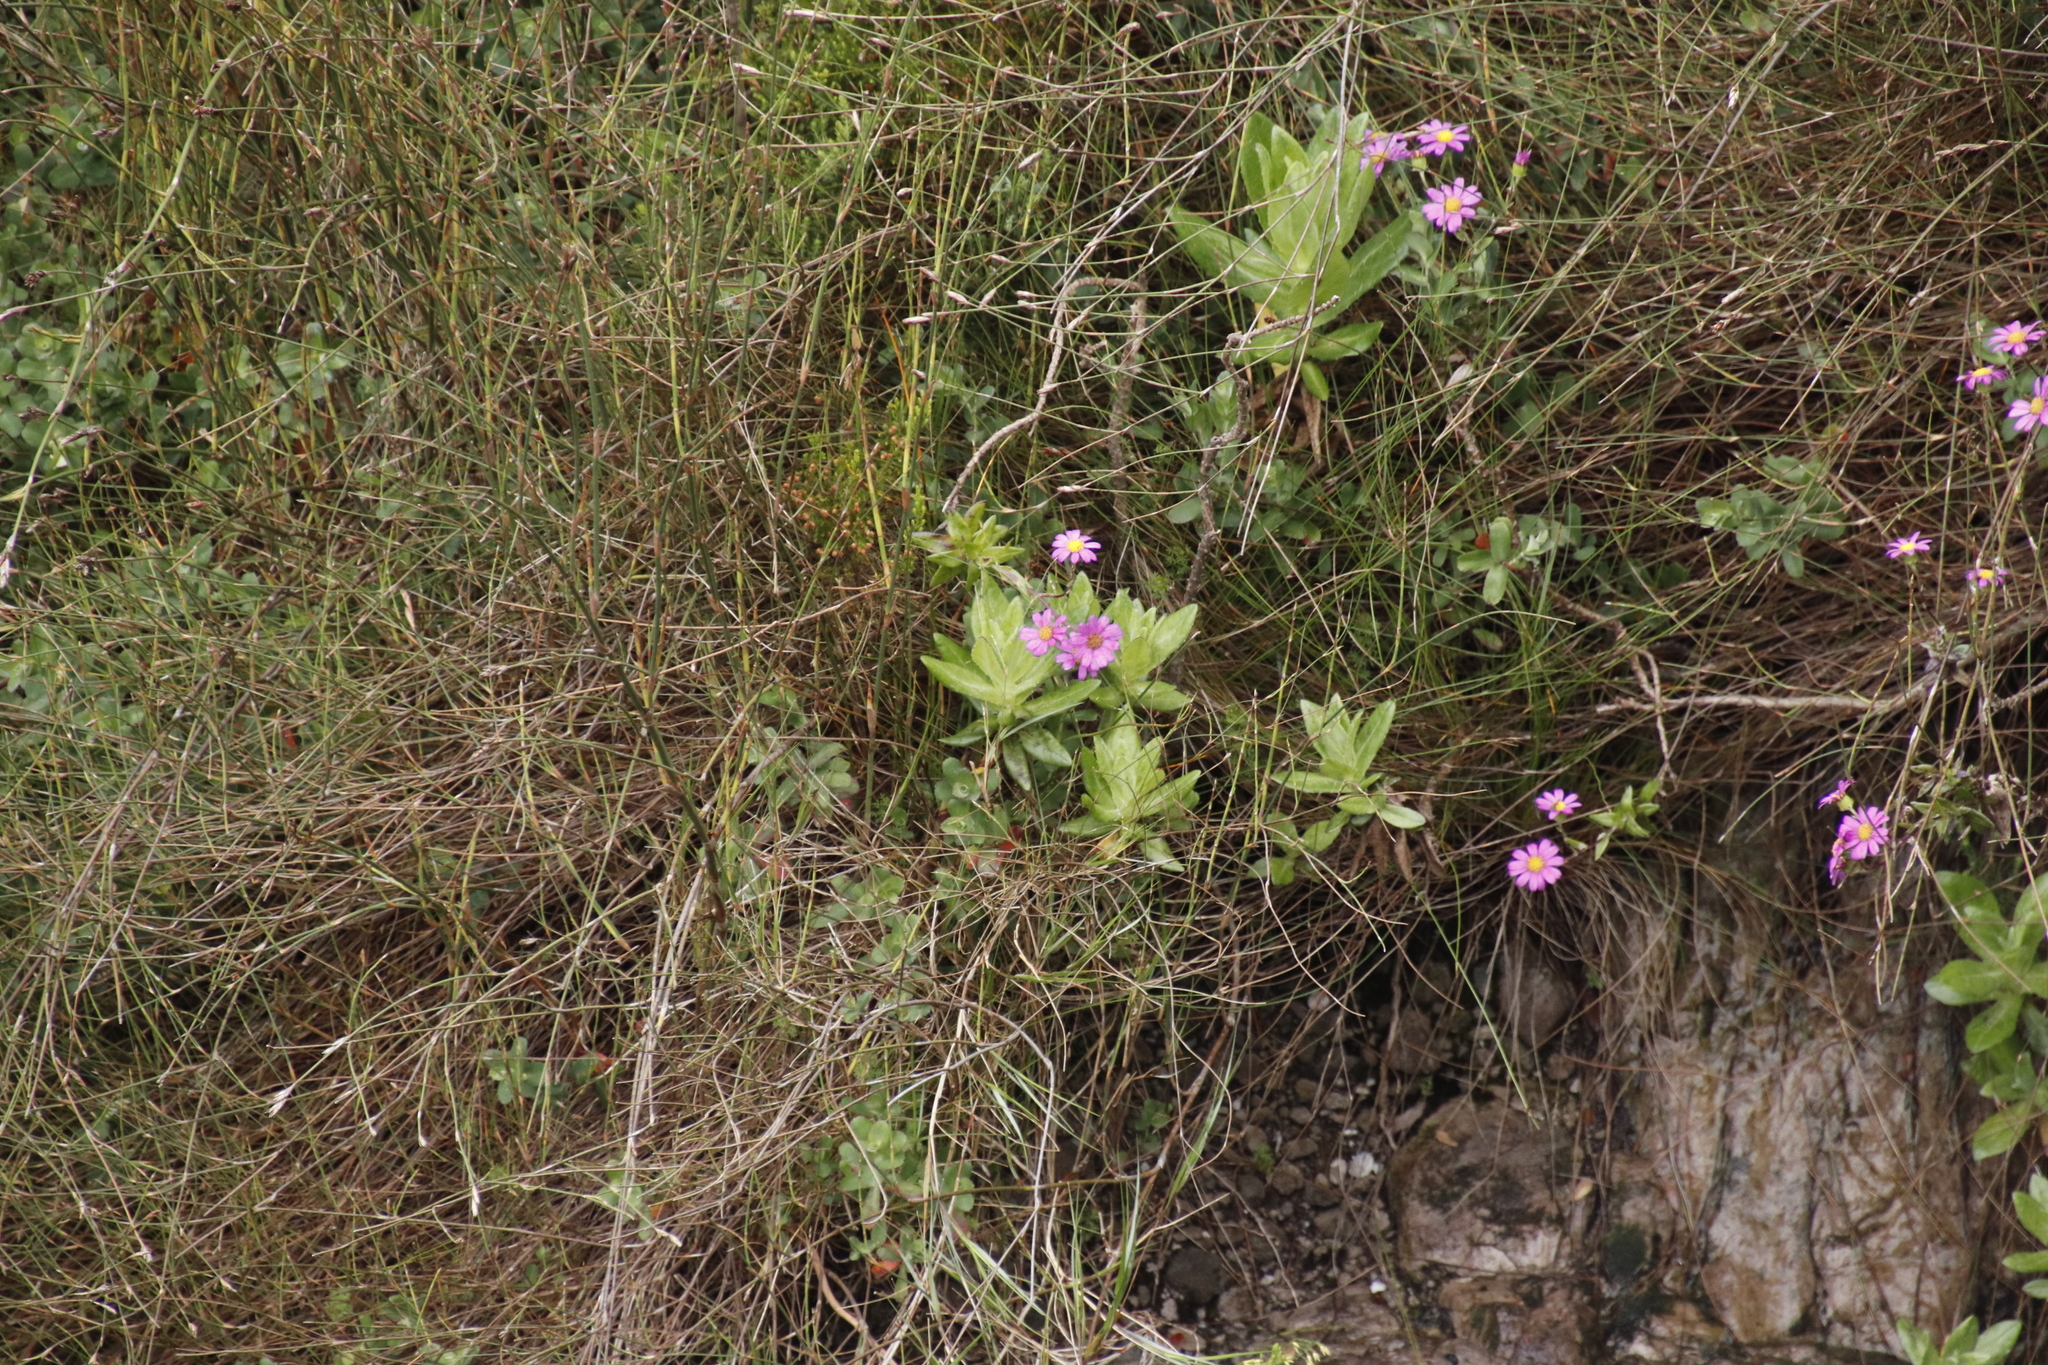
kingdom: Plantae
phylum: Tracheophyta
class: Magnoliopsida
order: Asterales
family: Asteraceae
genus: Senecio
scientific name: Senecio speciosissimus
